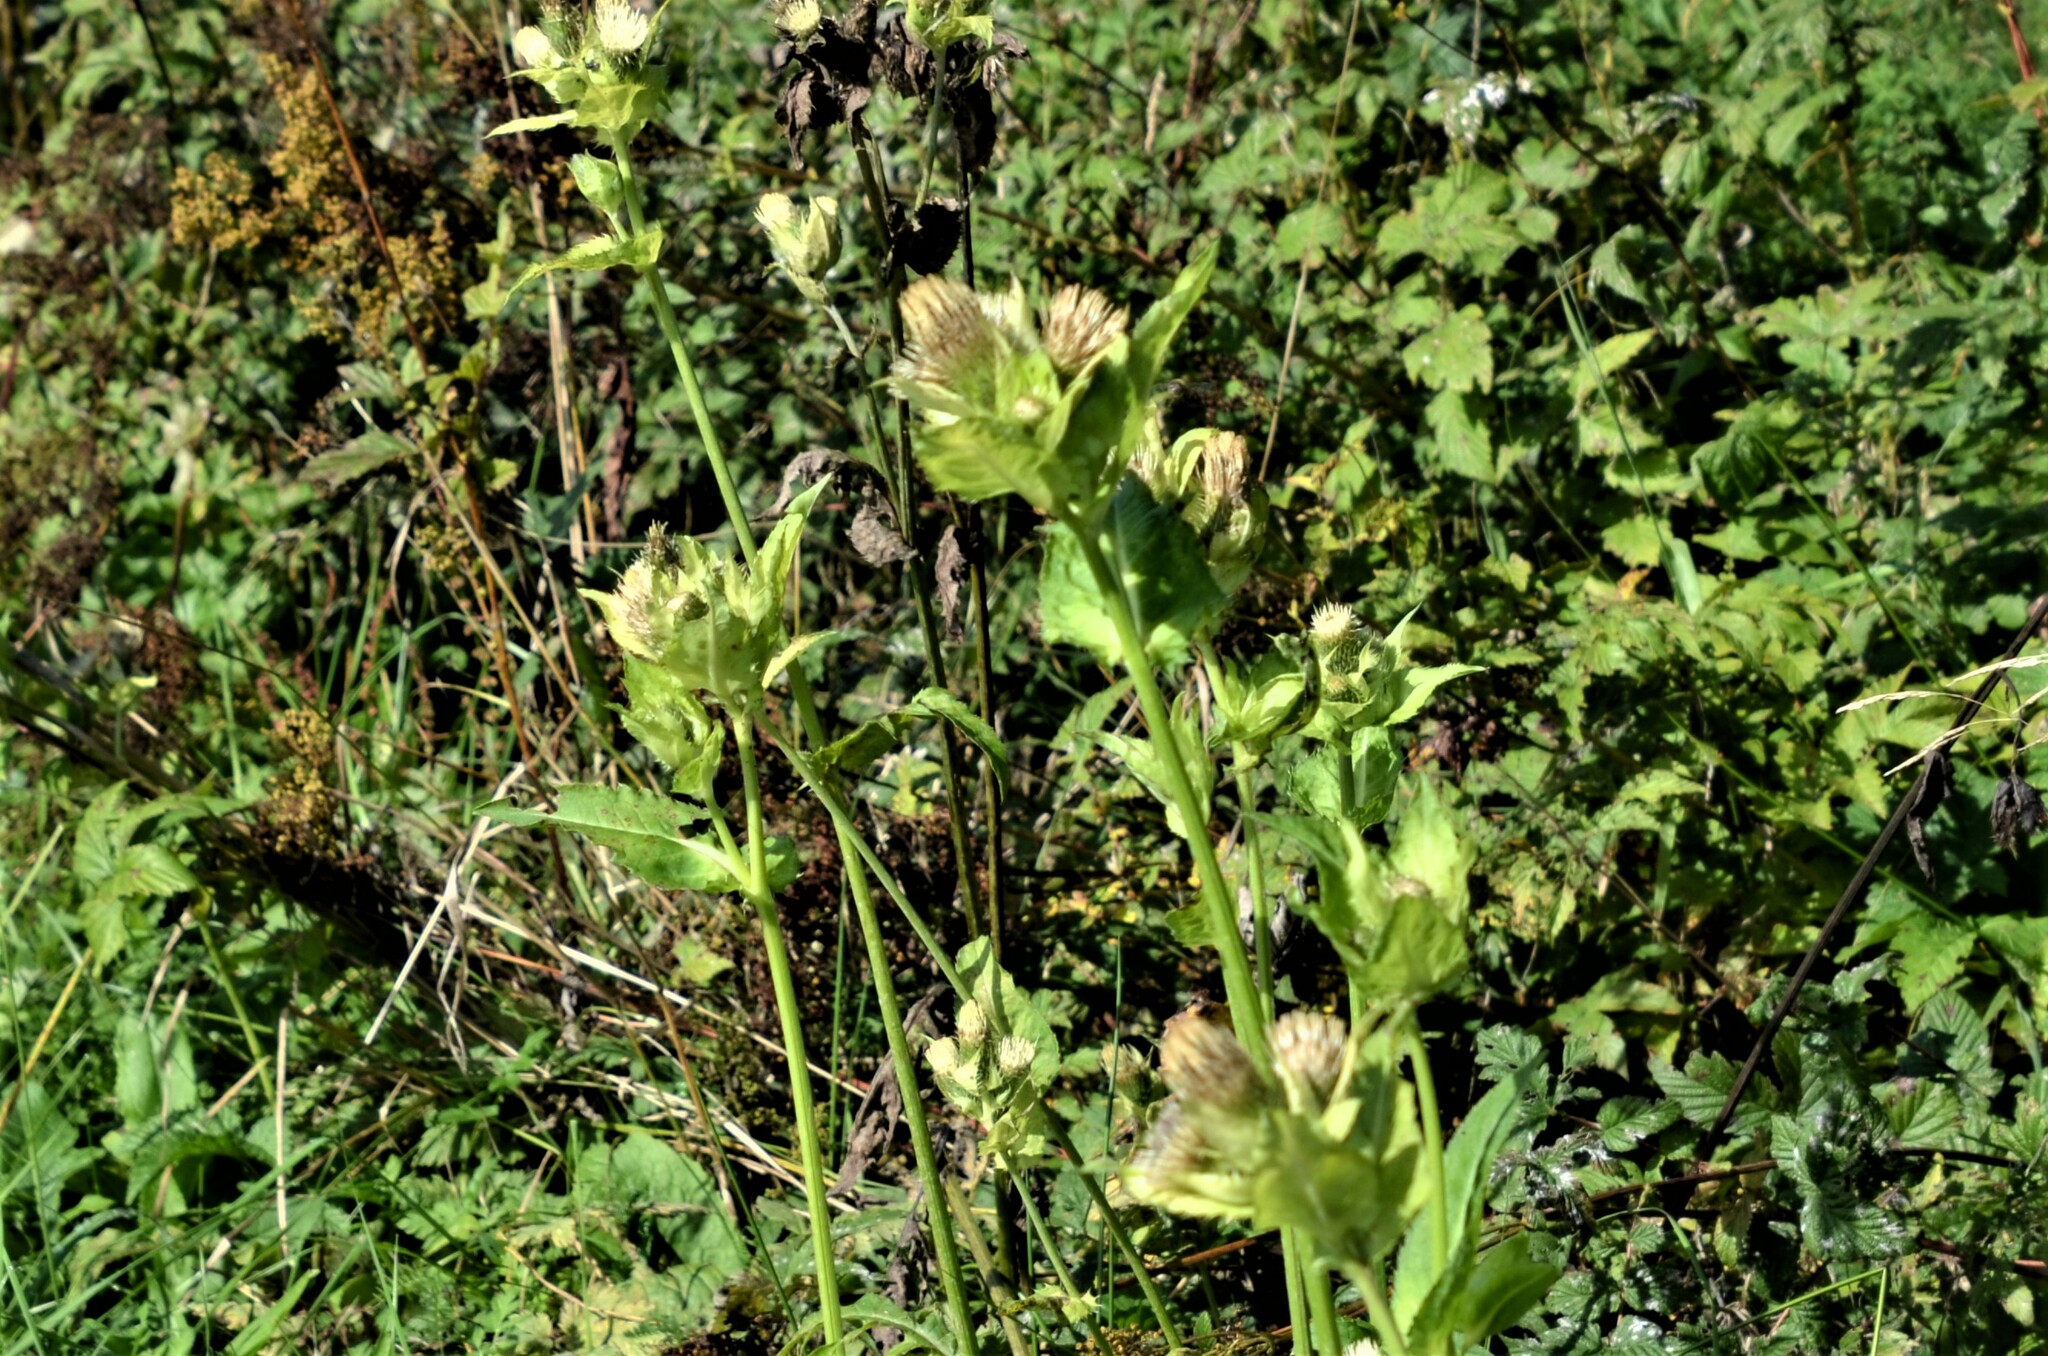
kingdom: Plantae
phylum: Tracheophyta
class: Magnoliopsida
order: Asterales
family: Asteraceae
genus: Cirsium
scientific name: Cirsium oleraceum
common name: Cabbage thistle
